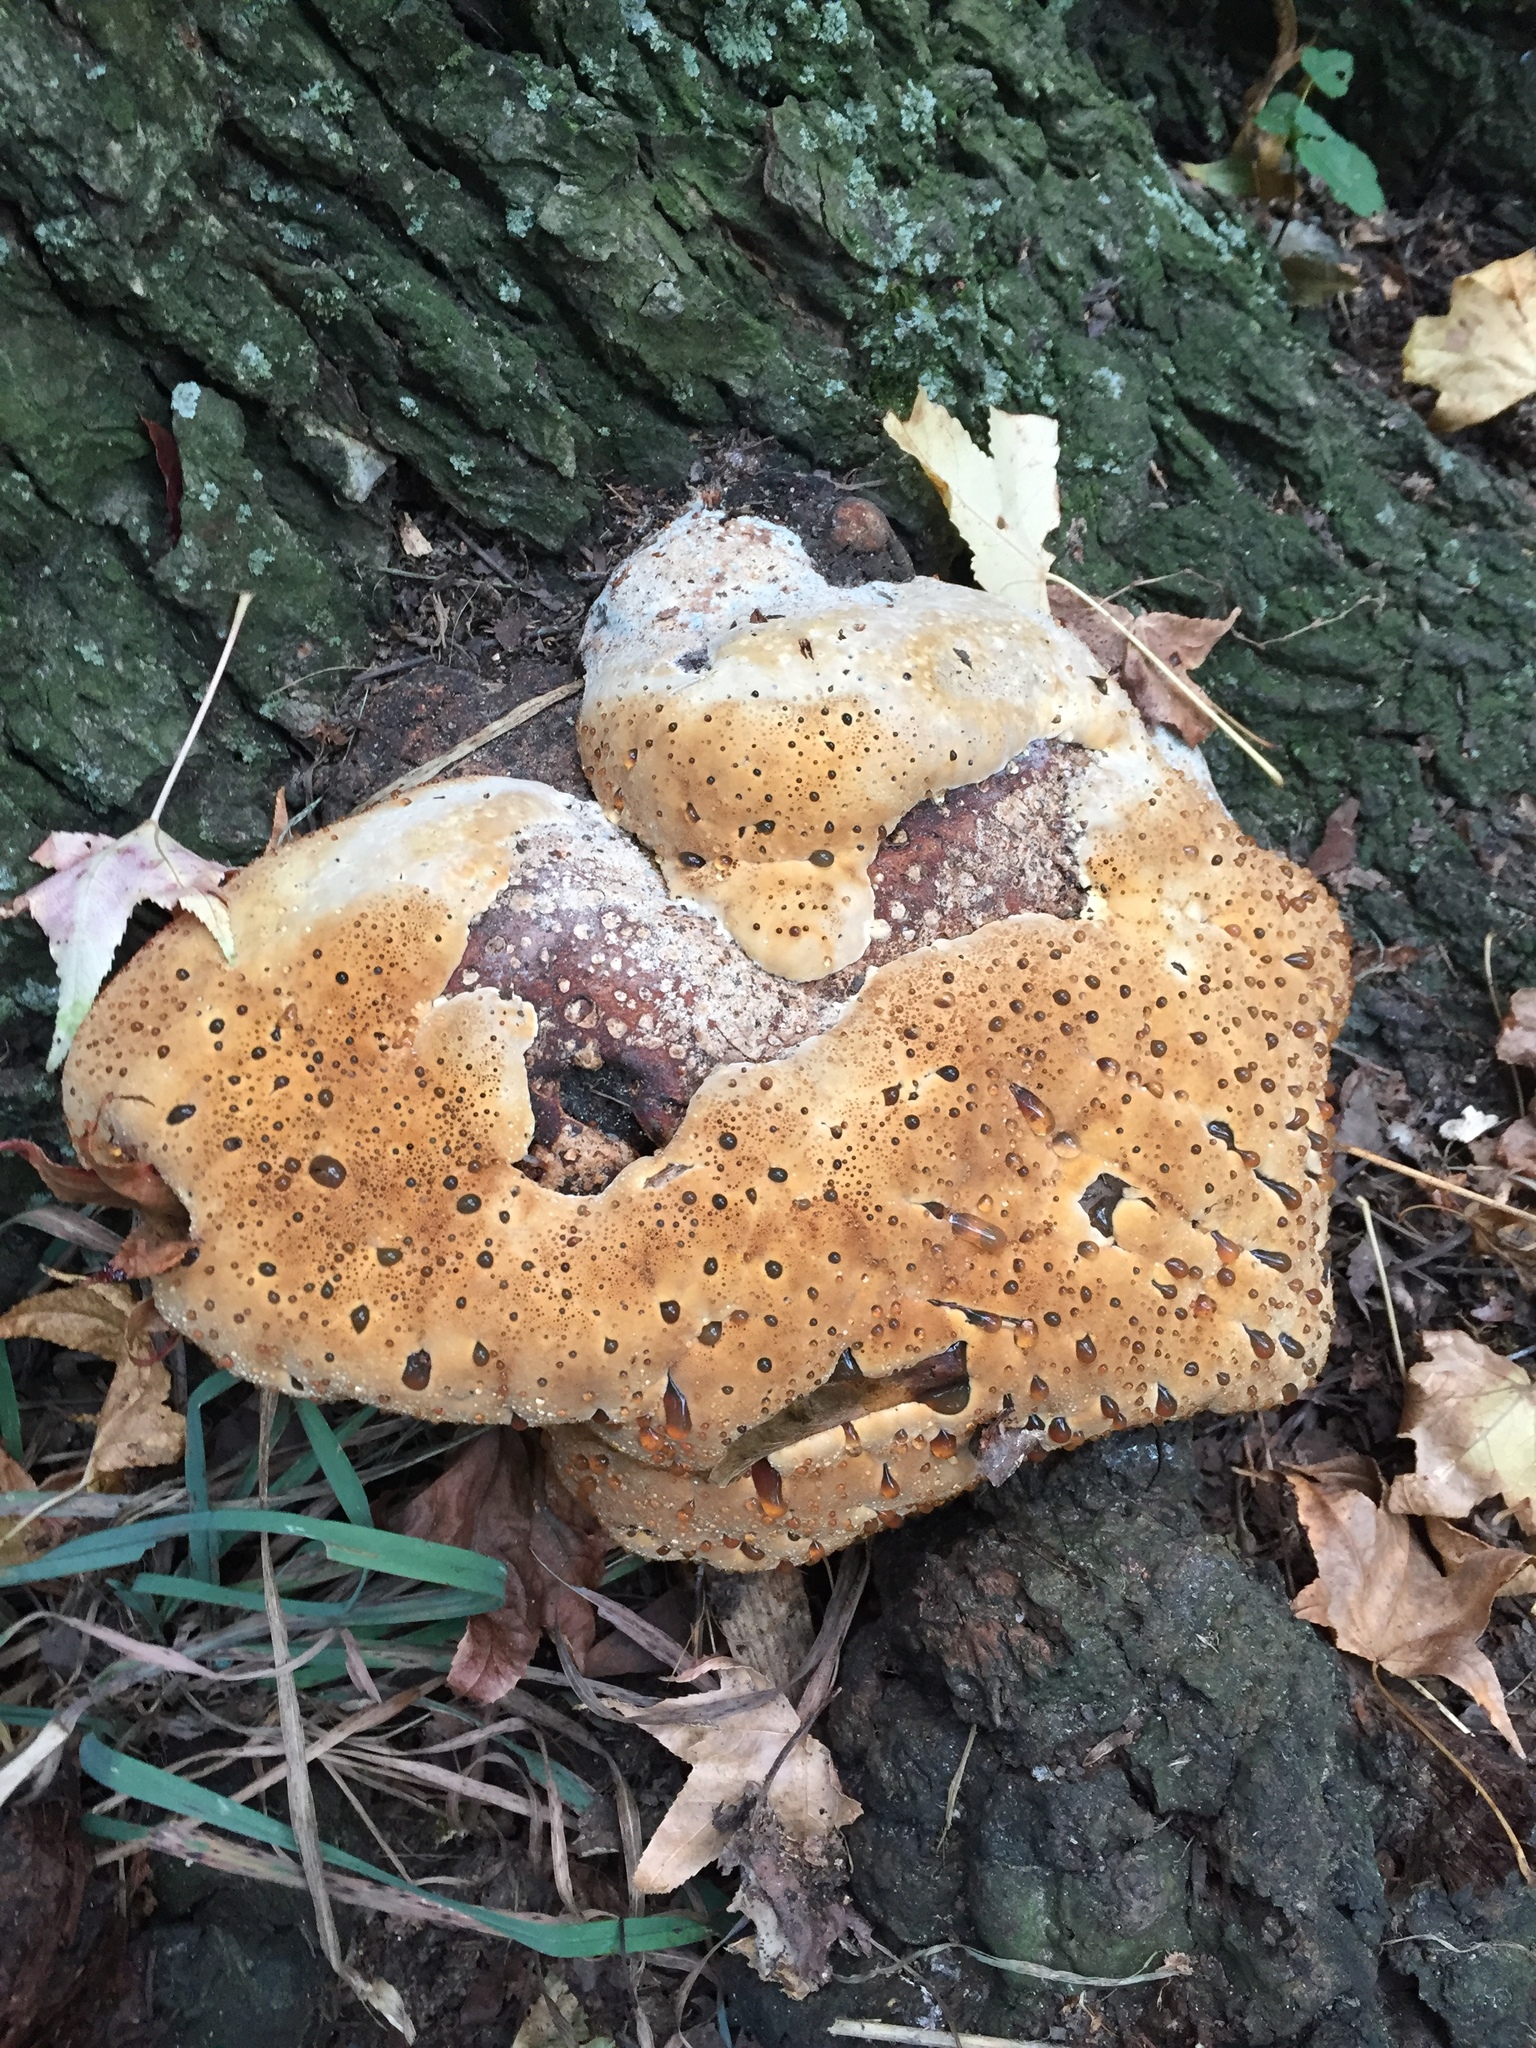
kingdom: Fungi
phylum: Basidiomycota
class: Agaricomycetes
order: Hymenochaetales
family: Hymenochaetaceae
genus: Pseudoinonotus
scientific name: Pseudoinonotus dryadeus
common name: Oak bracket
